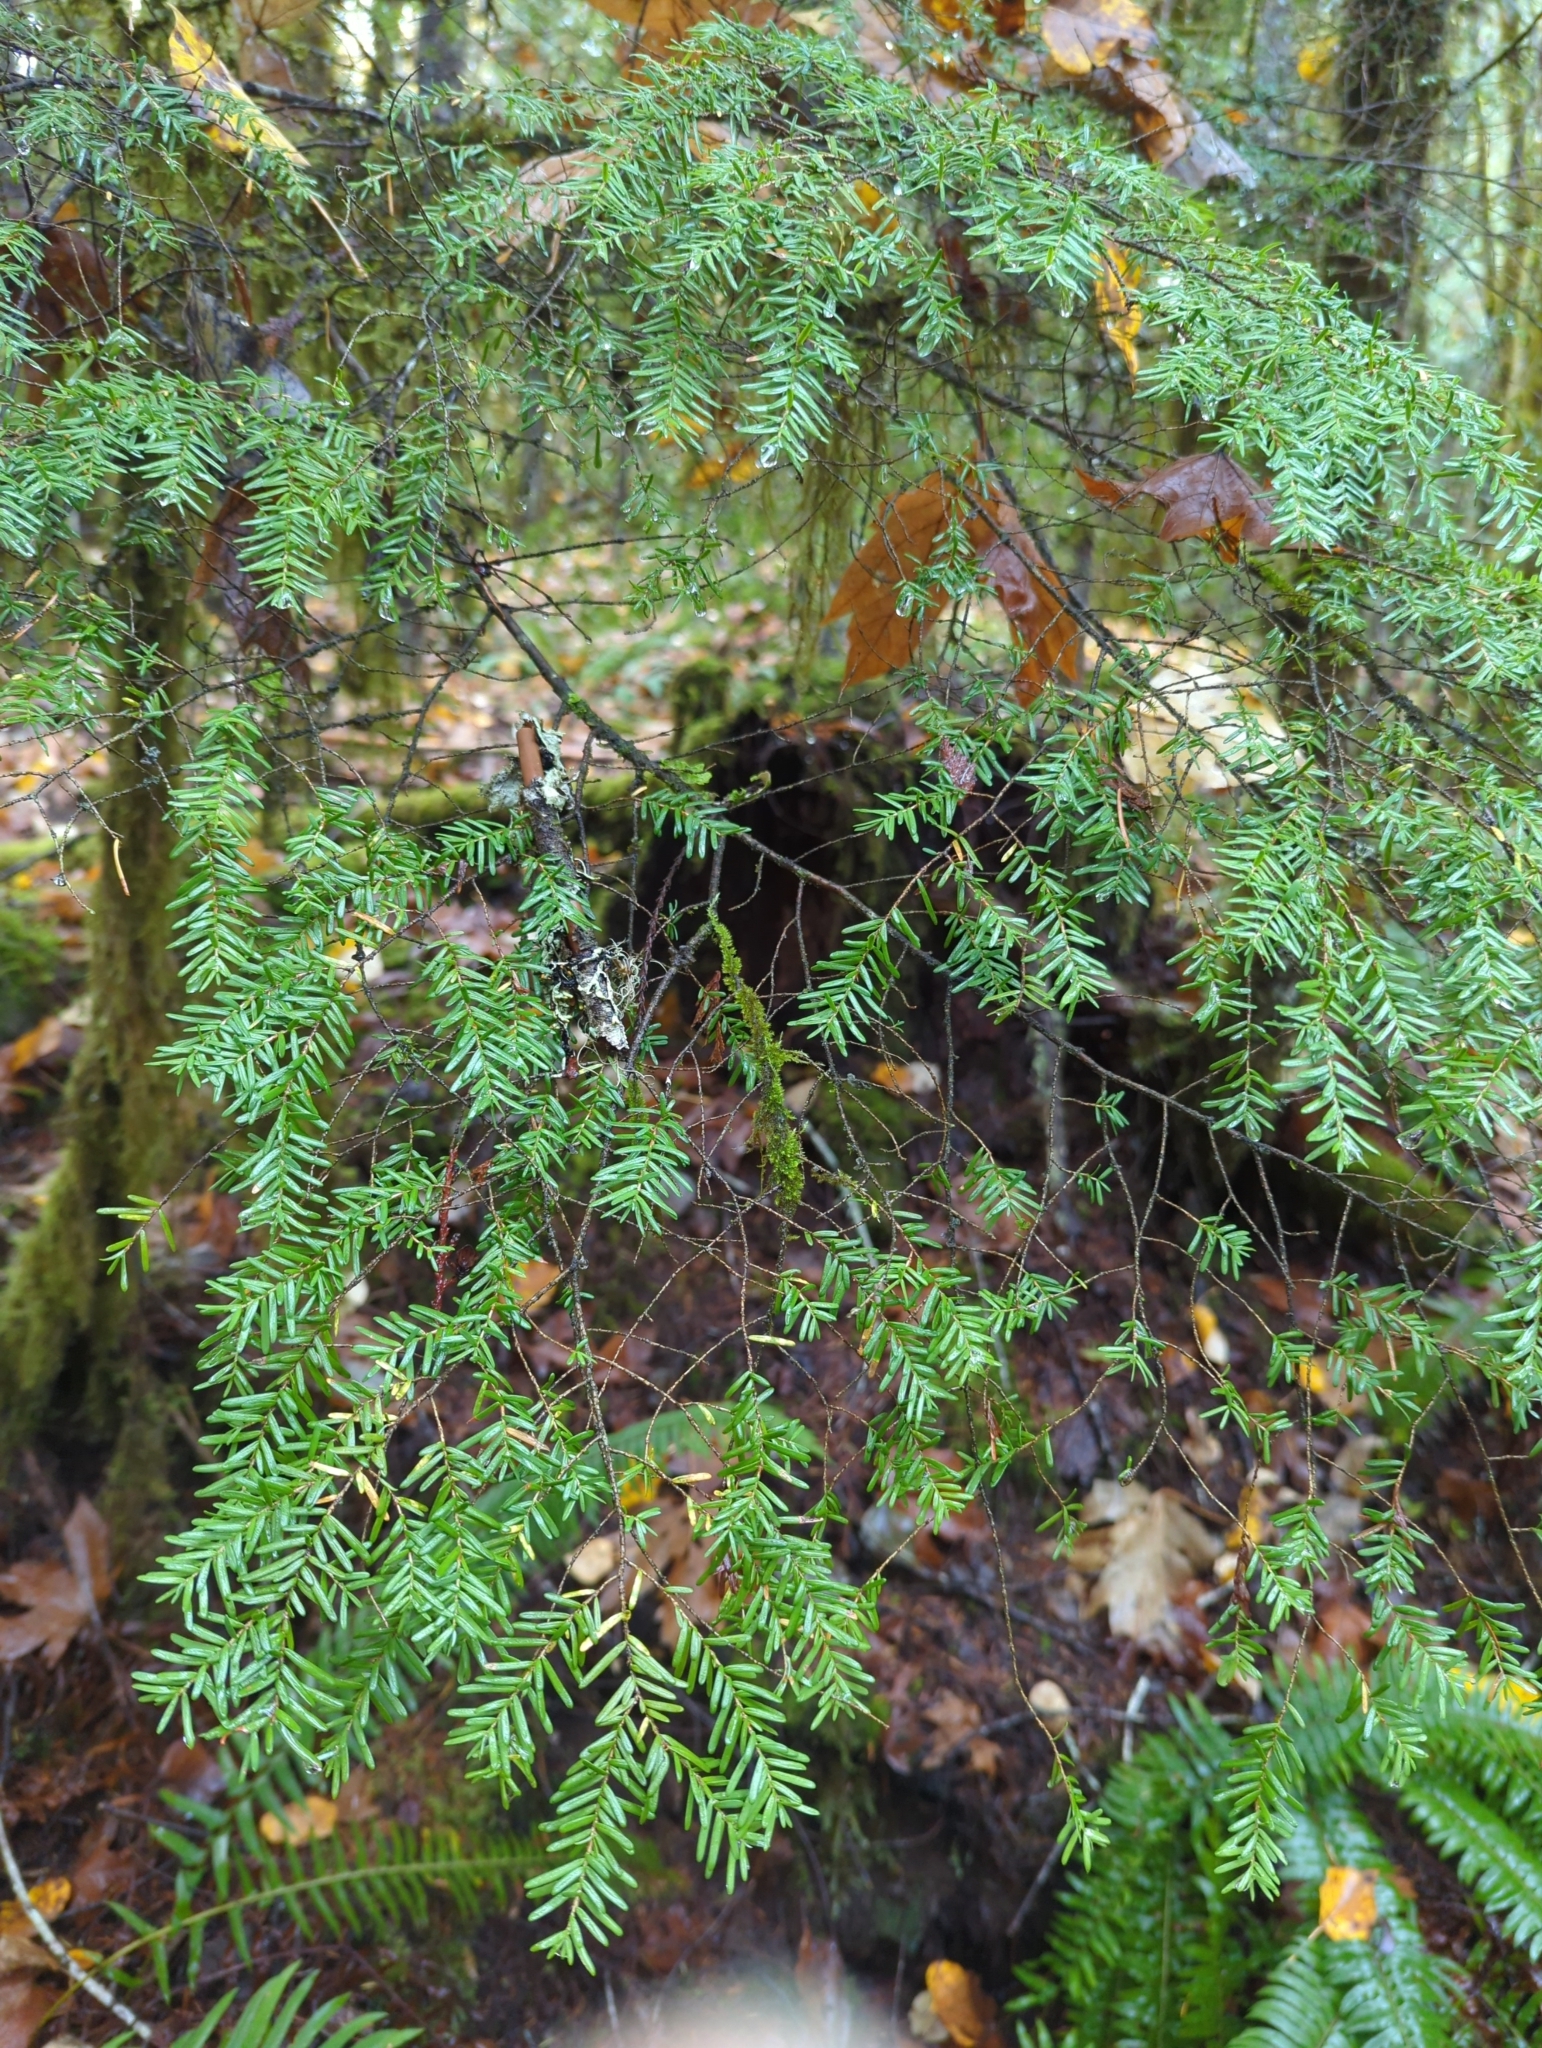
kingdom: Plantae
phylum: Tracheophyta
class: Pinopsida
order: Pinales
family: Pinaceae
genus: Tsuga
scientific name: Tsuga heterophylla
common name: Western hemlock
